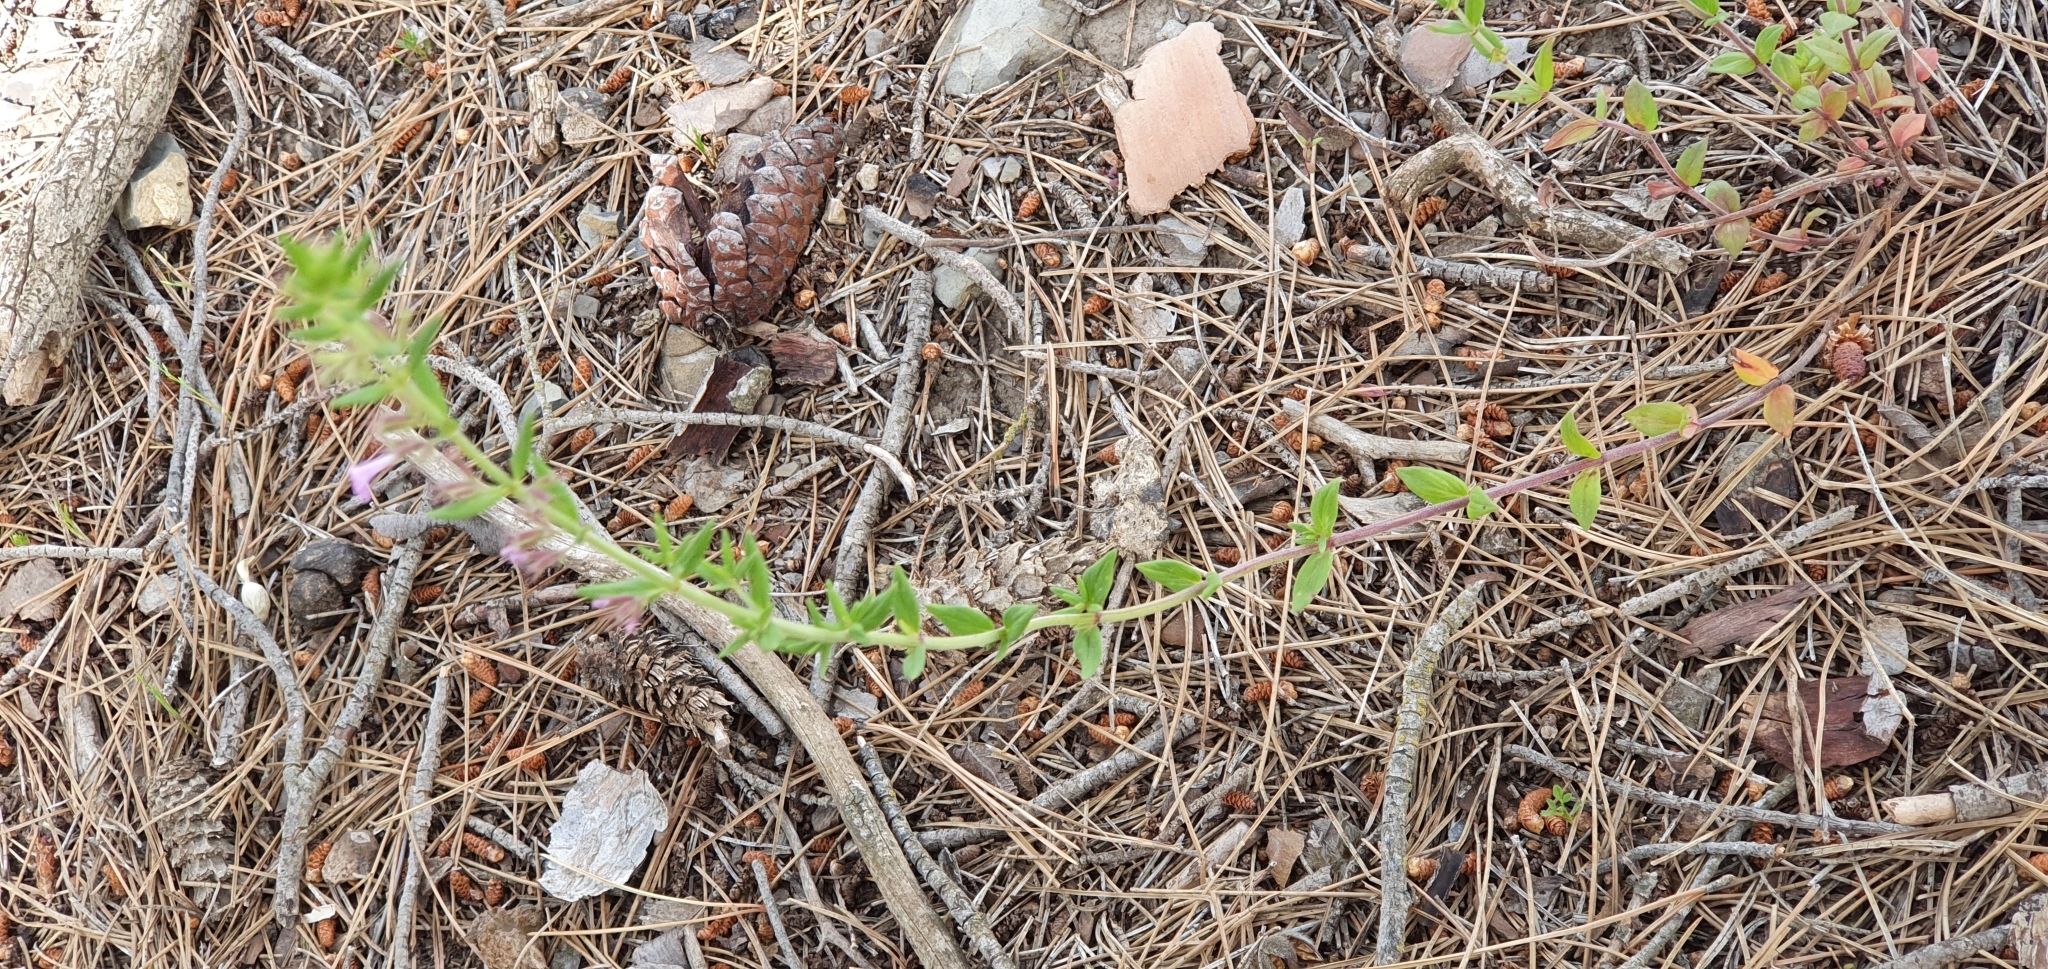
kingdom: Plantae
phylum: Tracheophyta
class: Magnoliopsida
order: Lamiales
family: Lamiaceae
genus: Micromeria
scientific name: Micromeria graeca
